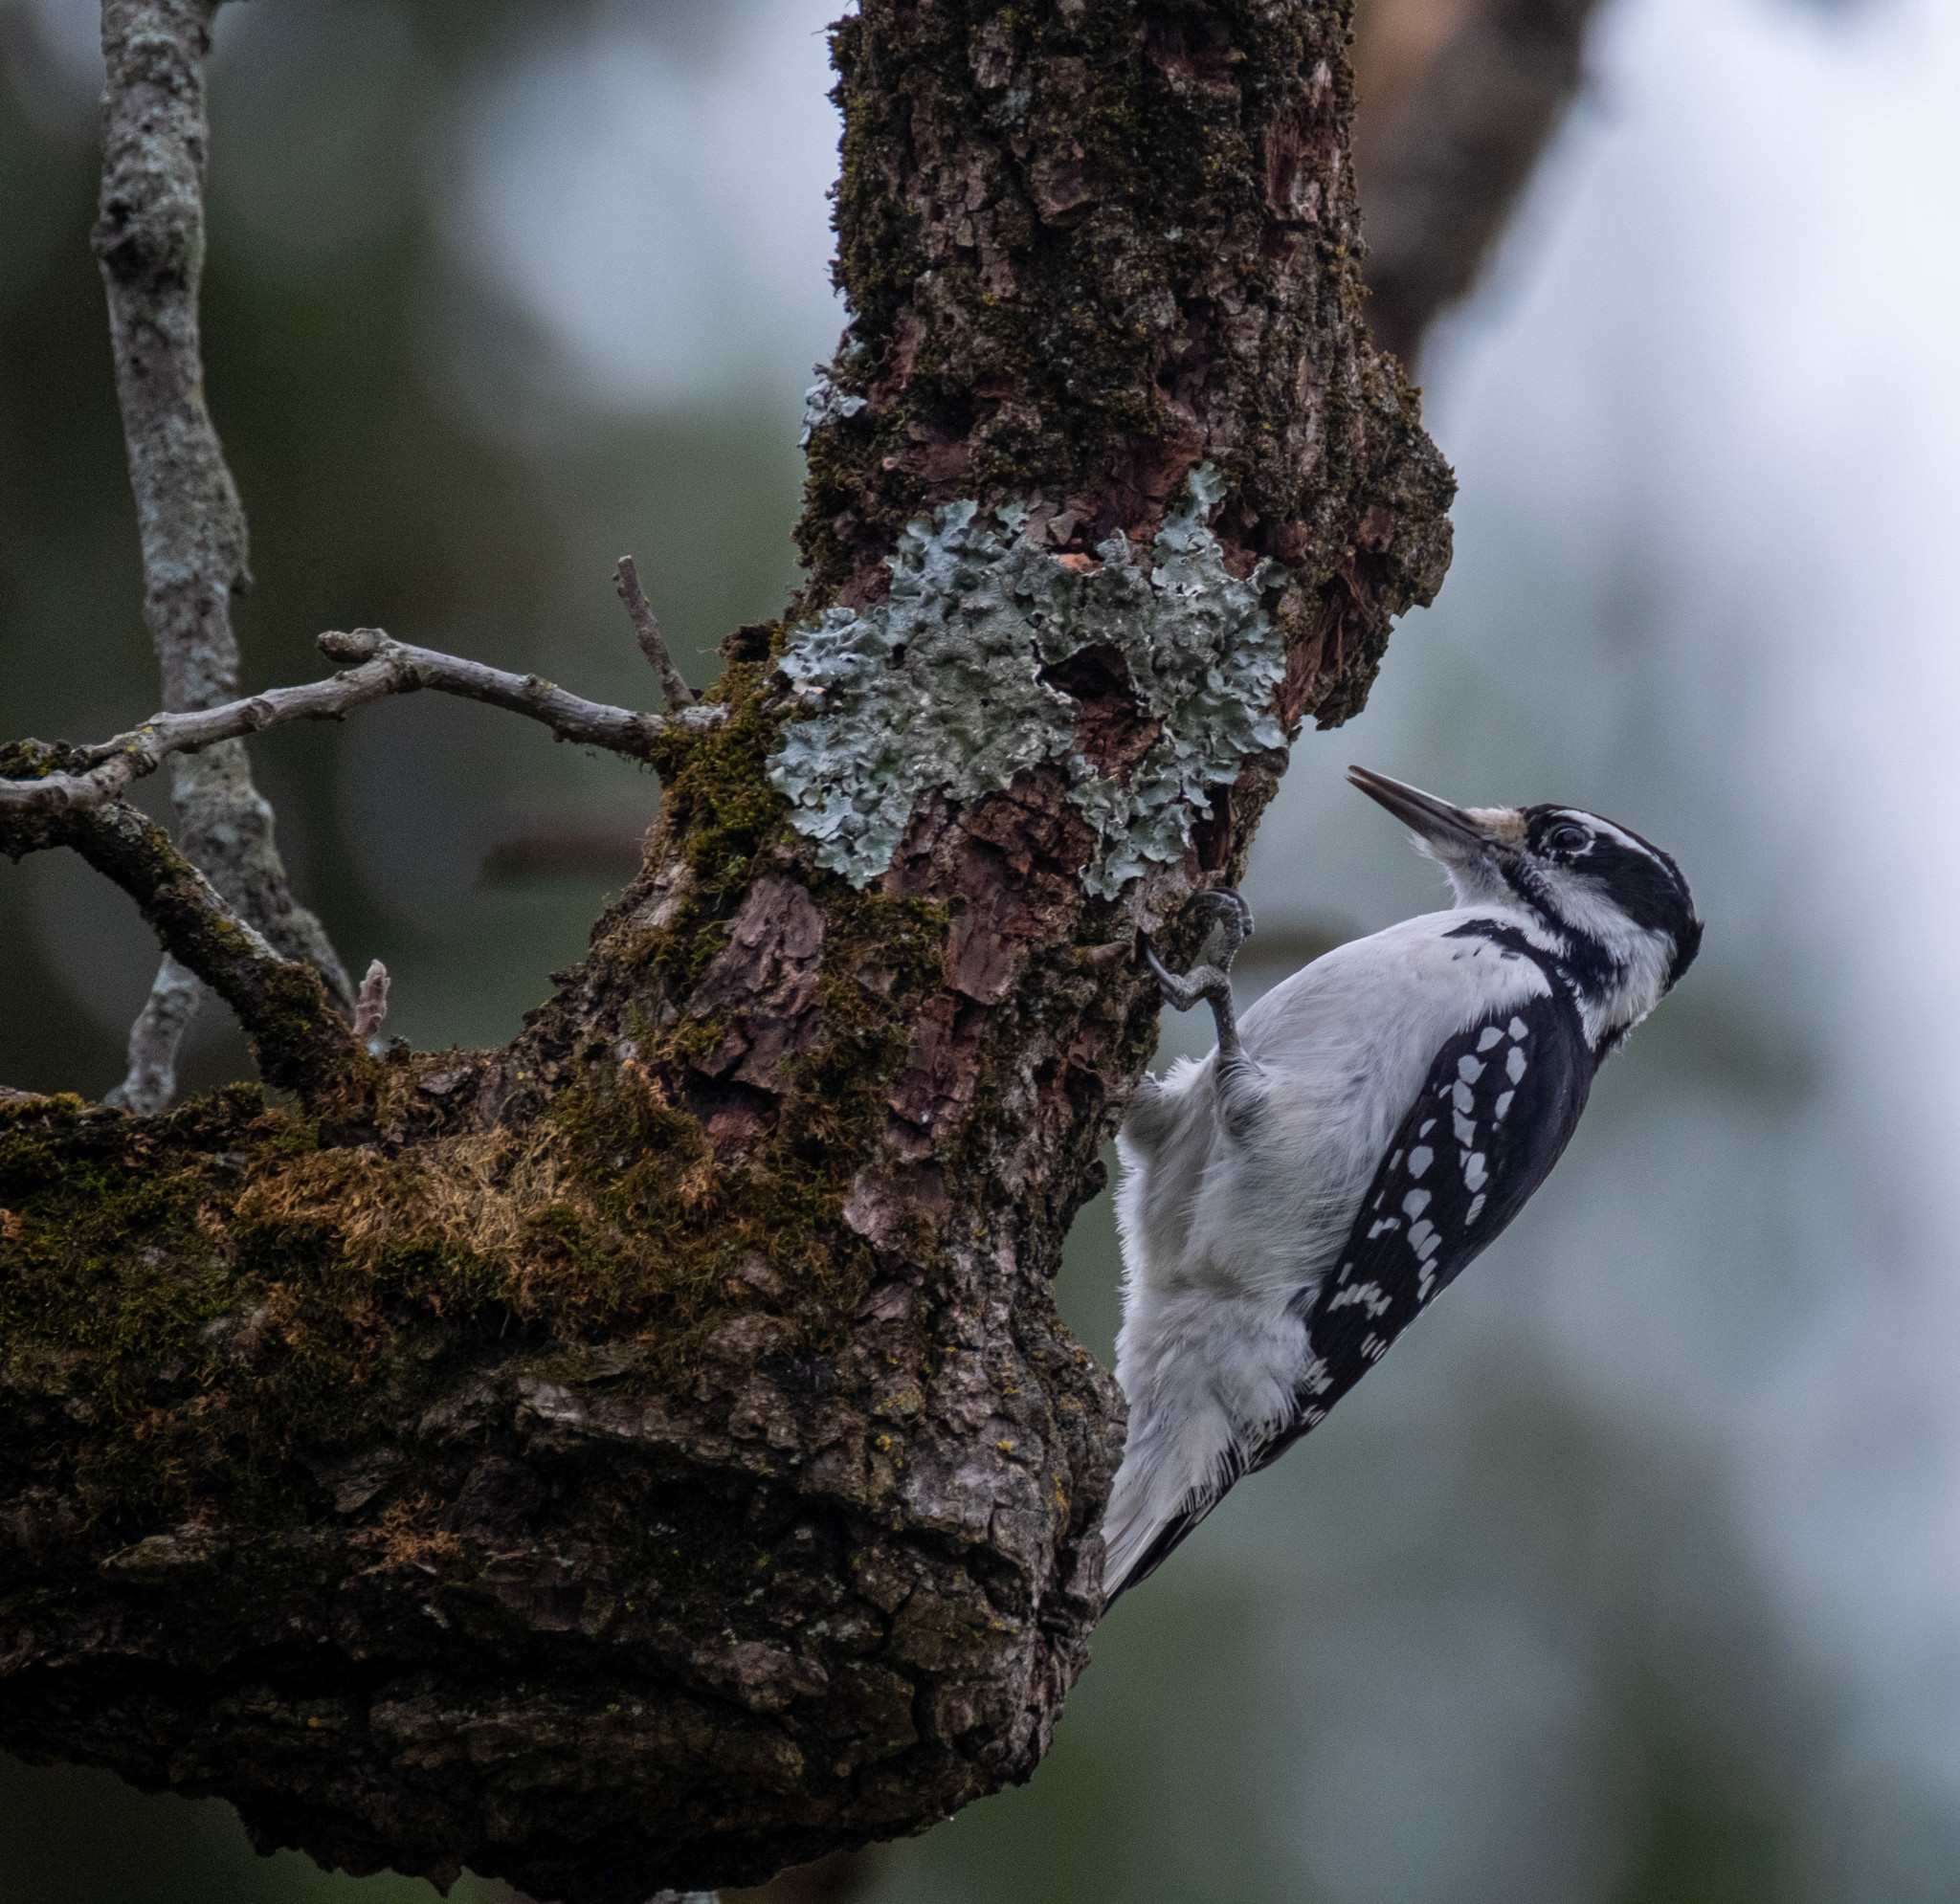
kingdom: Animalia
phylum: Chordata
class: Aves
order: Piciformes
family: Picidae
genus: Leuconotopicus
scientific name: Leuconotopicus villosus
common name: Hairy woodpecker
